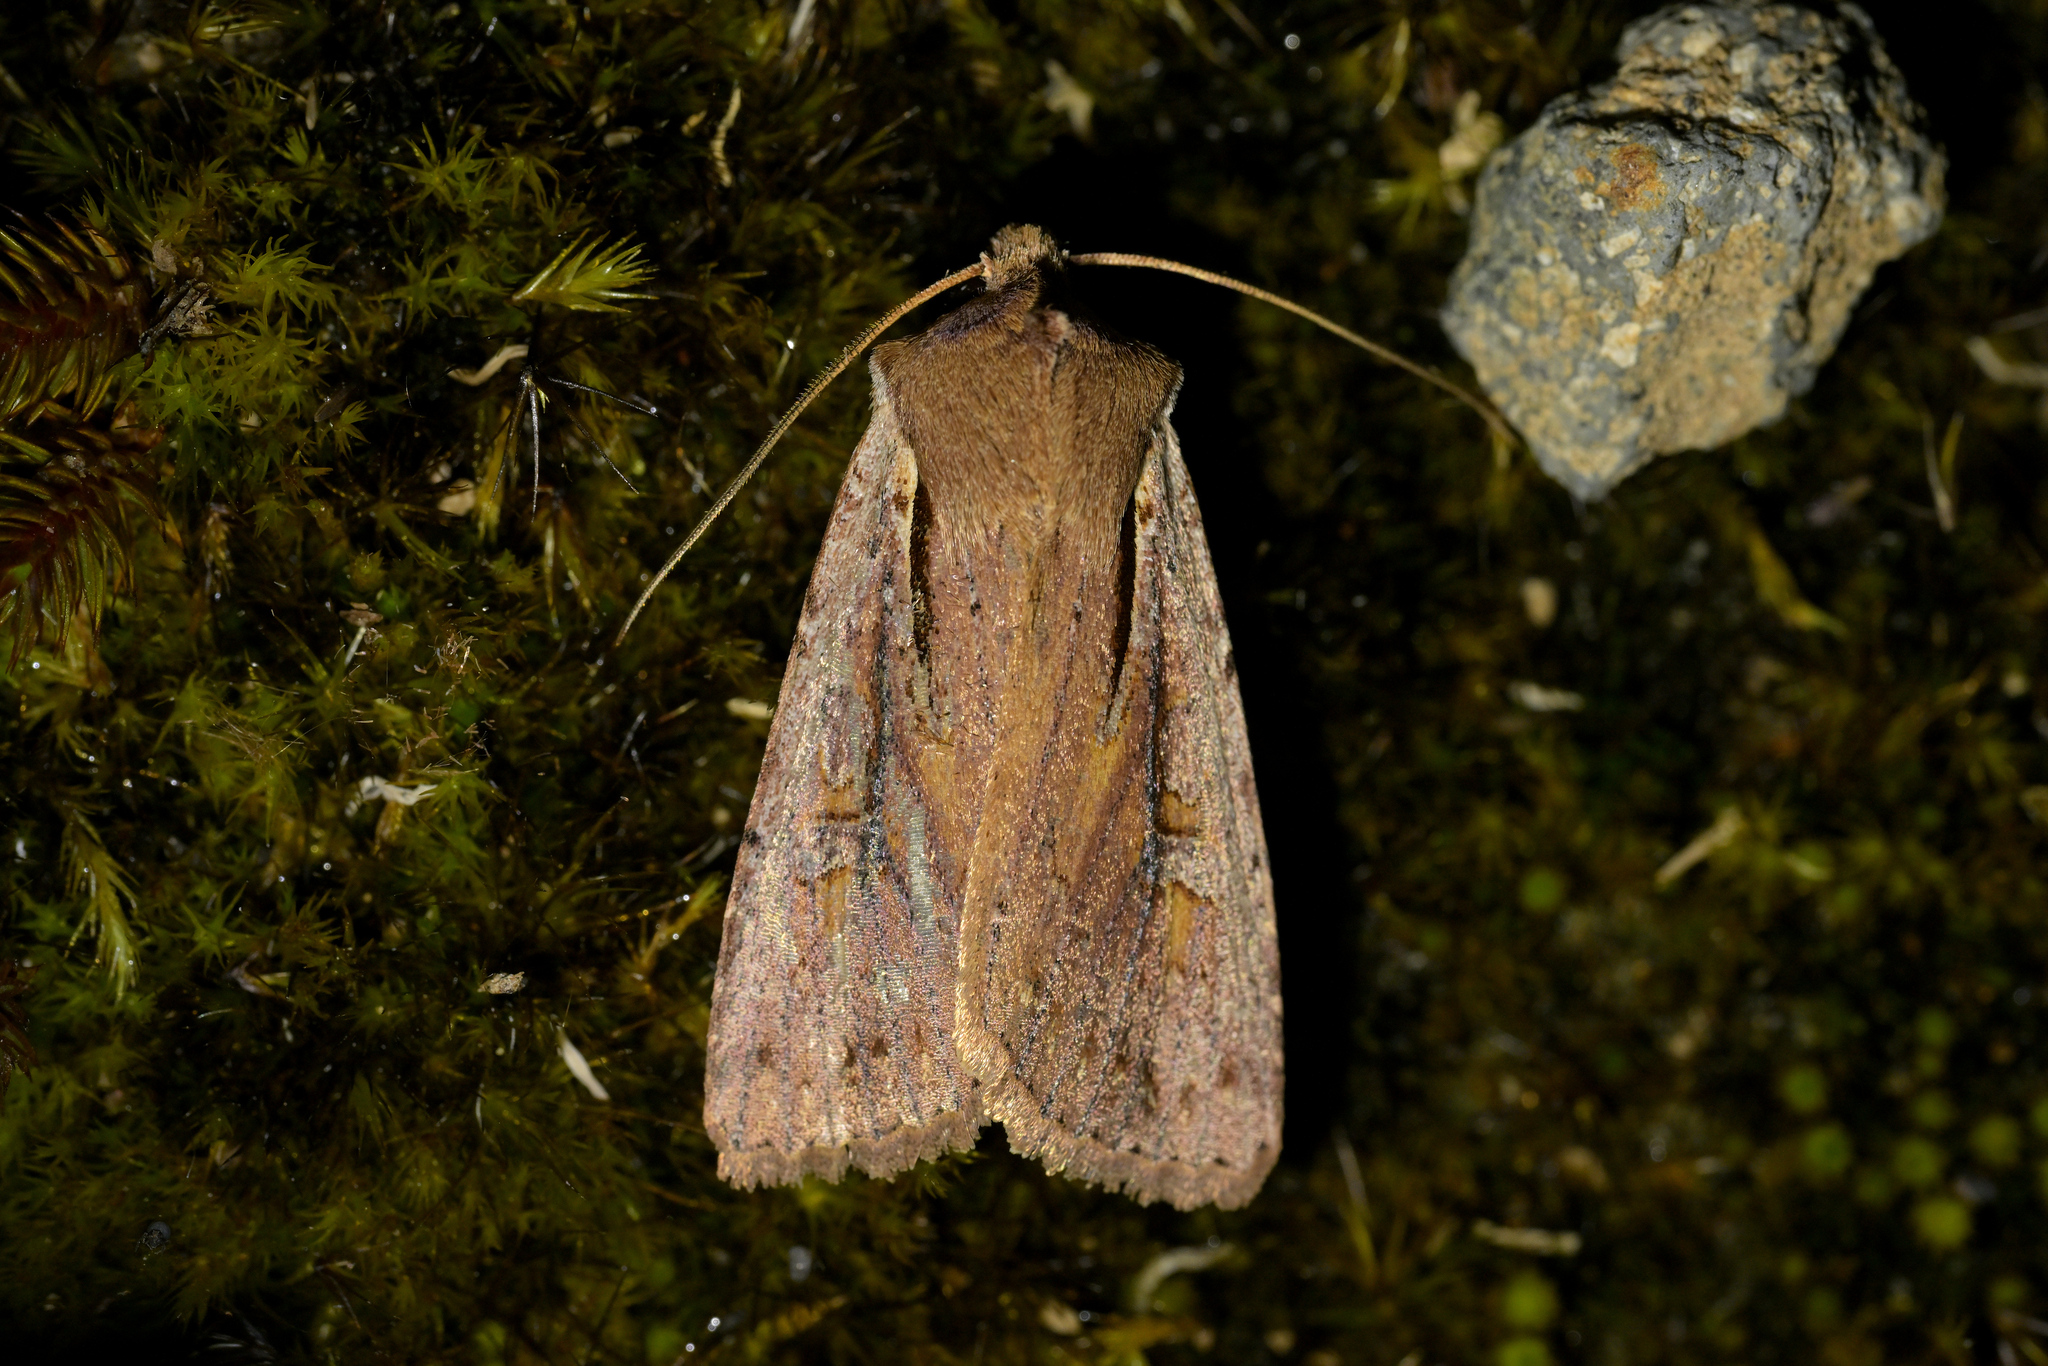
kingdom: Animalia
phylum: Arthropoda
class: Insecta
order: Lepidoptera
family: Noctuidae
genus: Ichneutica
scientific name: Ichneutica atristriga
